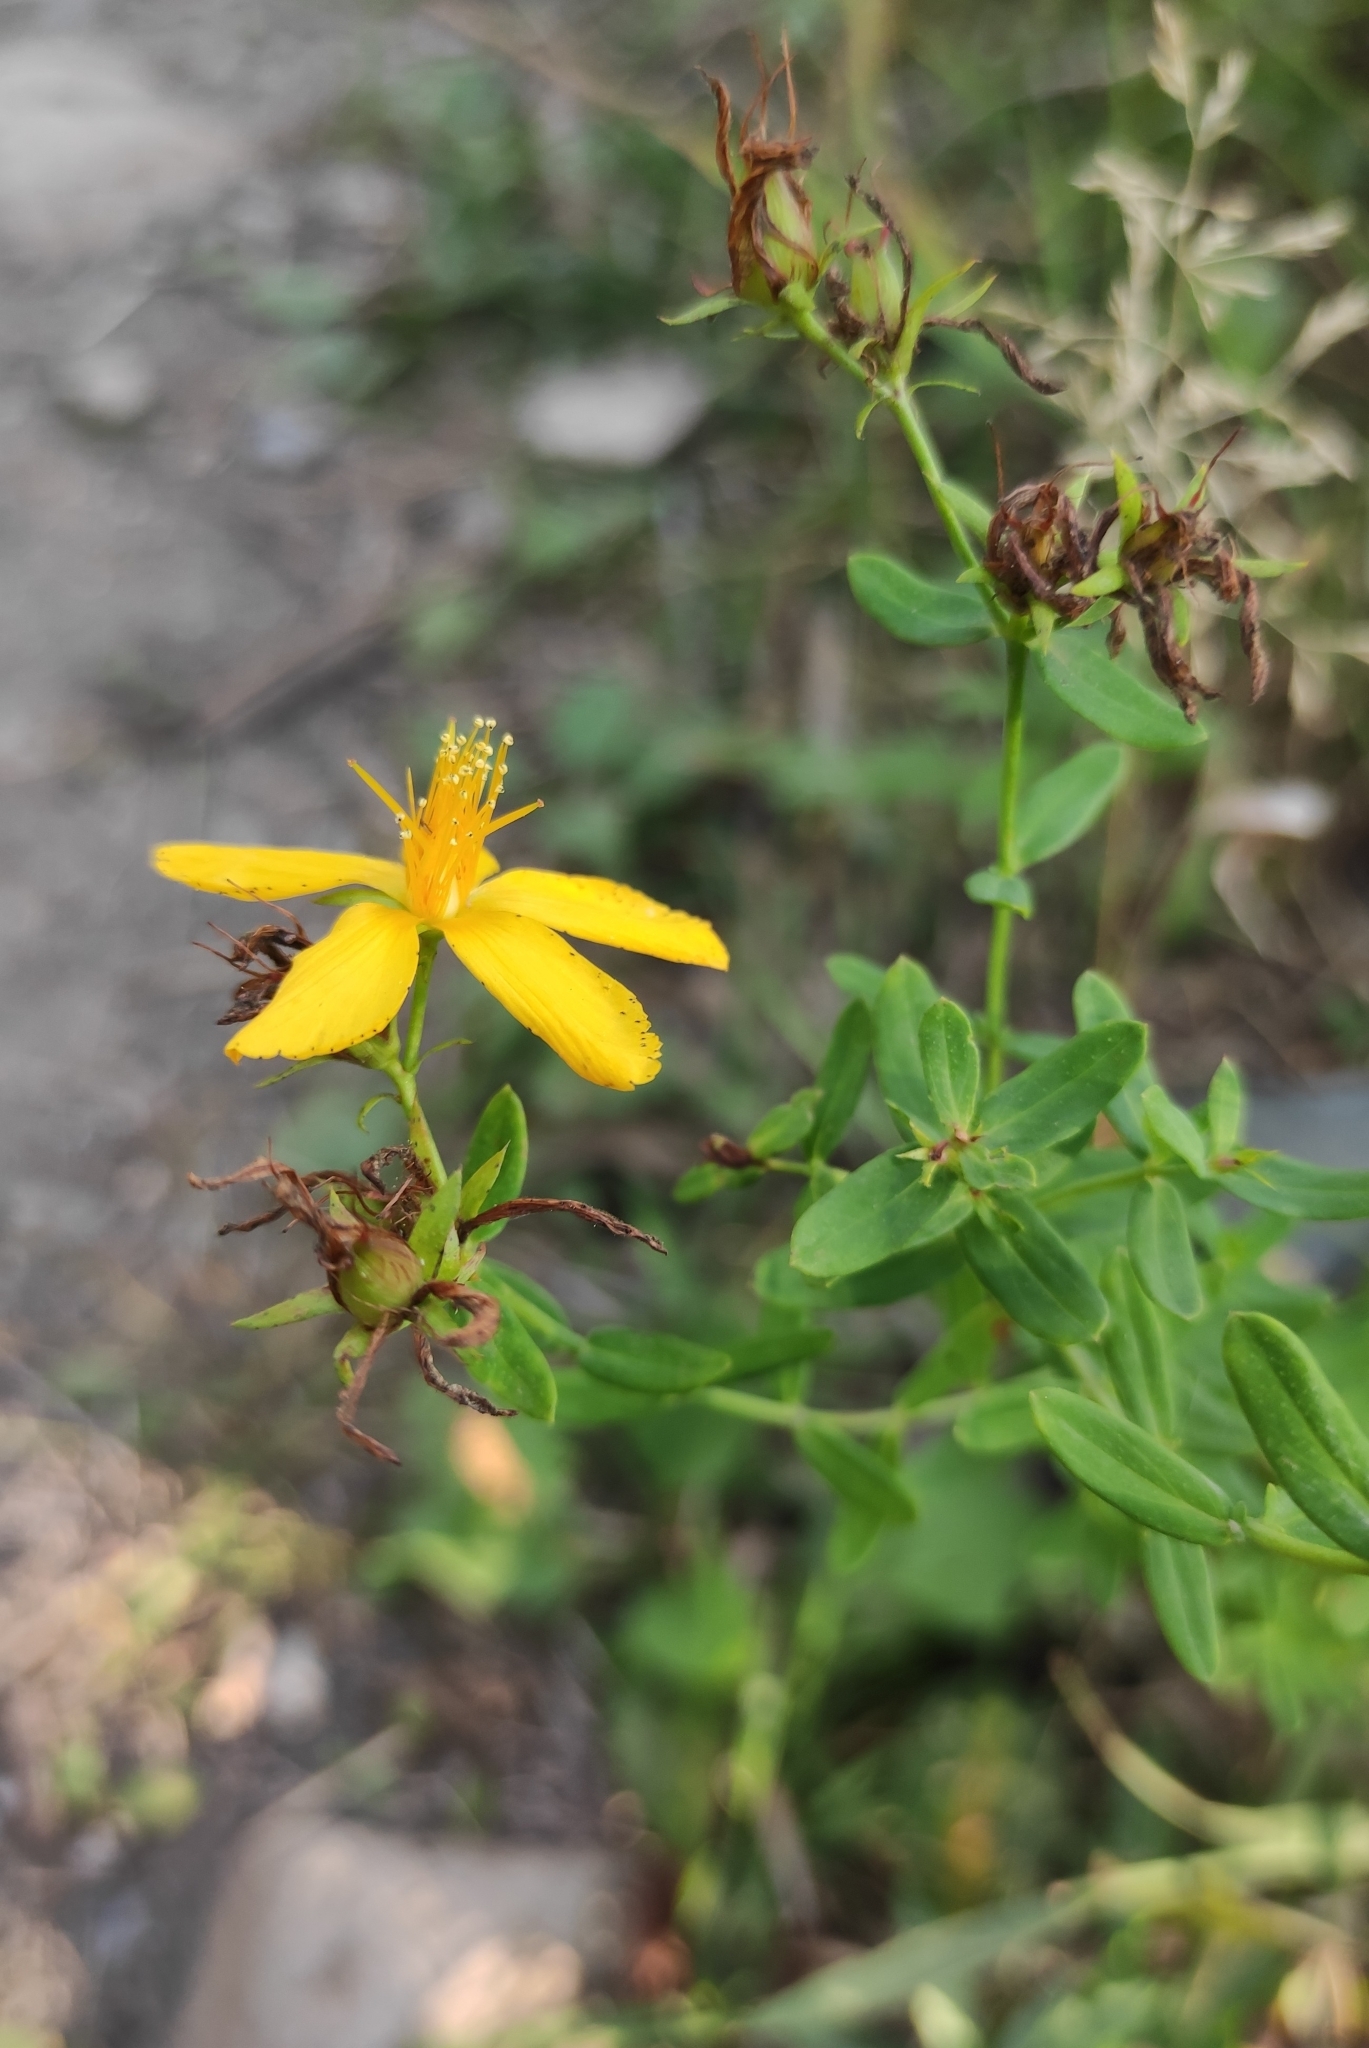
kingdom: Plantae
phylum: Tracheophyta
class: Magnoliopsida
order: Malpighiales
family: Hypericaceae
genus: Hypericum
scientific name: Hypericum perforatum
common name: Common st. johnswort
